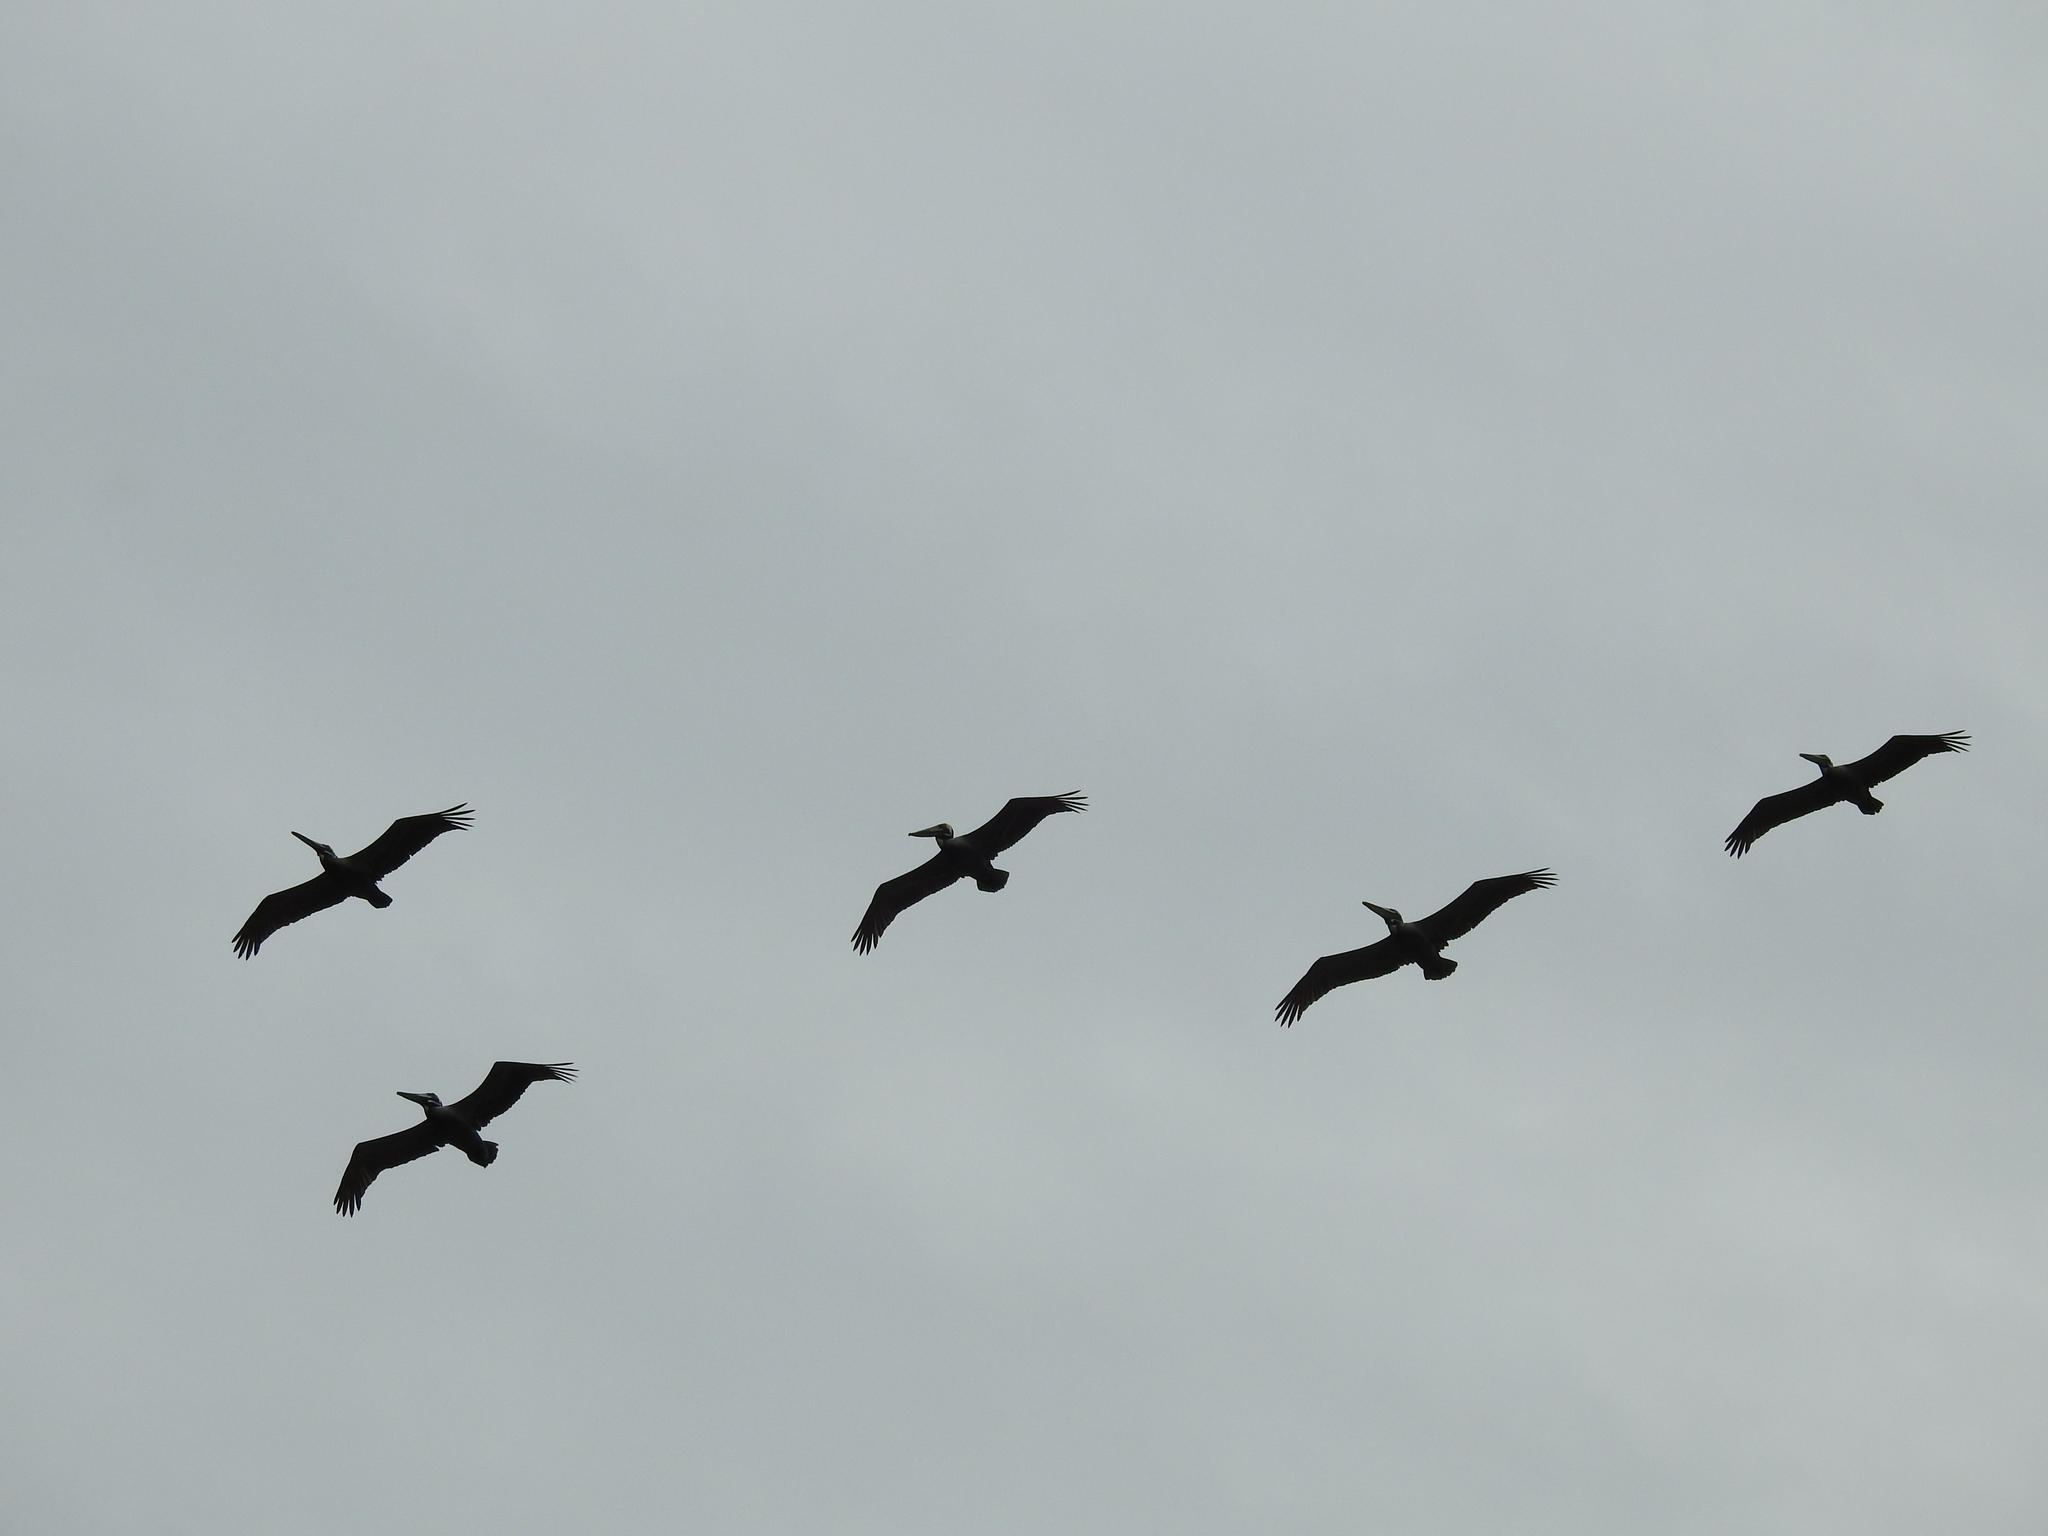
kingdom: Animalia
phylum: Chordata
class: Aves
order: Pelecaniformes
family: Pelecanidae
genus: Pelecanus
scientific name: Pelecanus occidentalis
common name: Brown pelican
